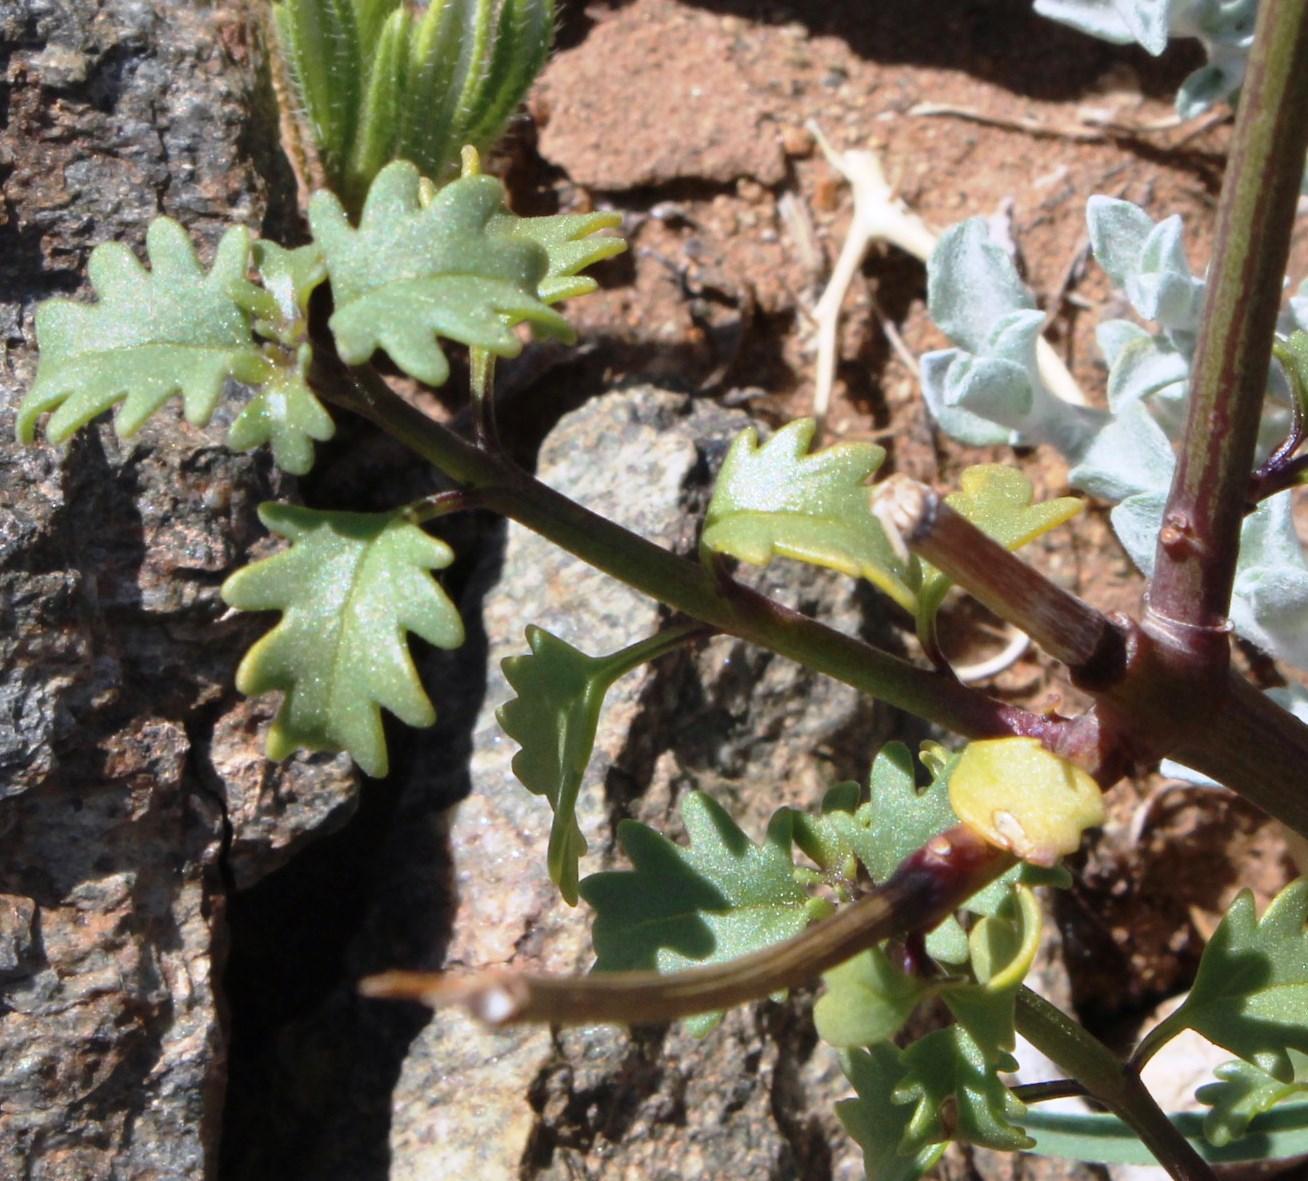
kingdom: Plantae
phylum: Tracheophyta
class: Magnoliopsida
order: Lamiales
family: Verbenaceae
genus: Chascanum
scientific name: Chascanum garipense
